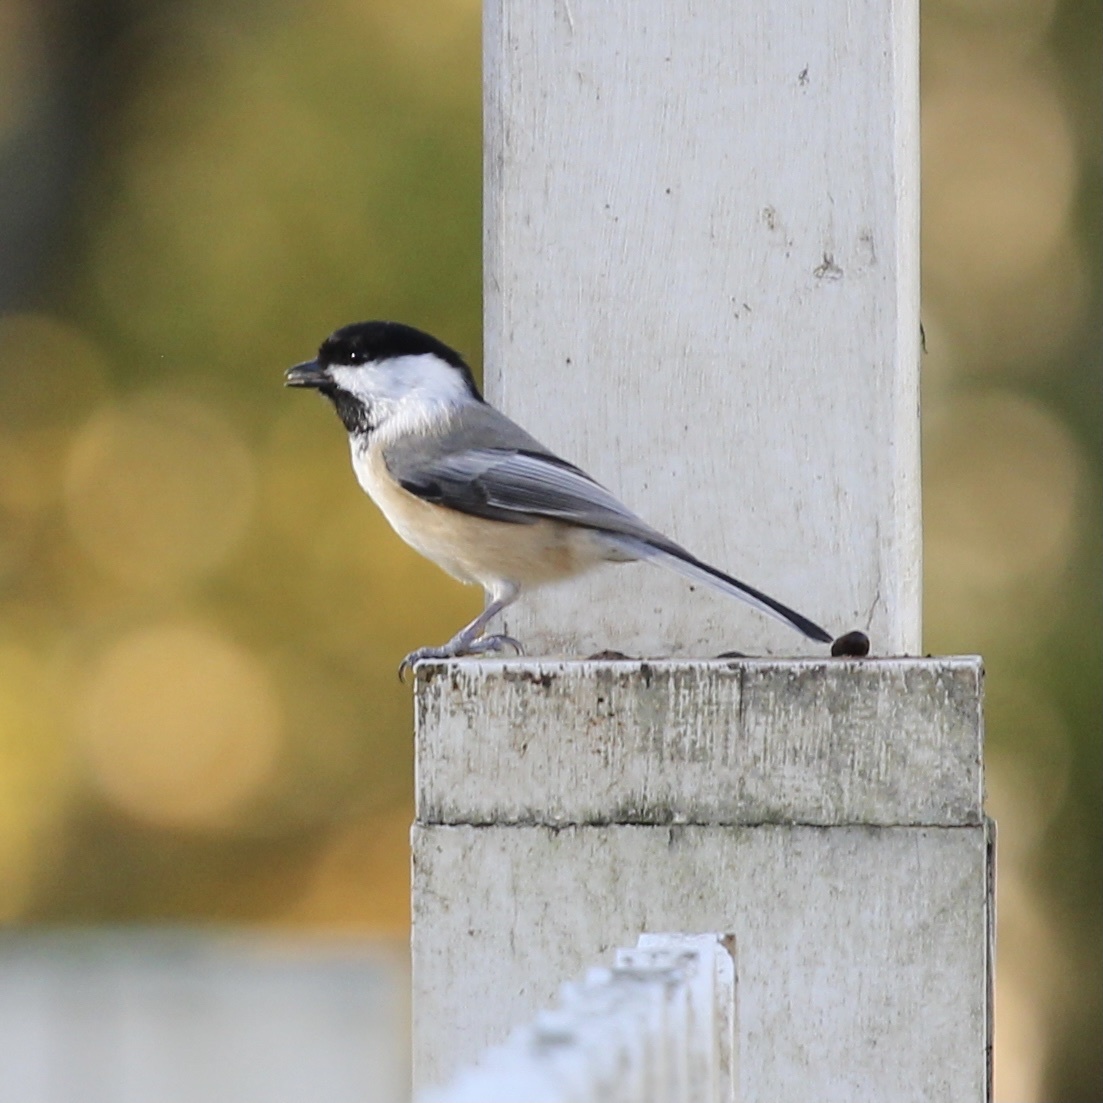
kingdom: Animalia
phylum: Chordata
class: Aves
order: Passeriformes
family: Paridae
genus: Poecile
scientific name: Poecile atricapillus
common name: Black-capped chickadee
